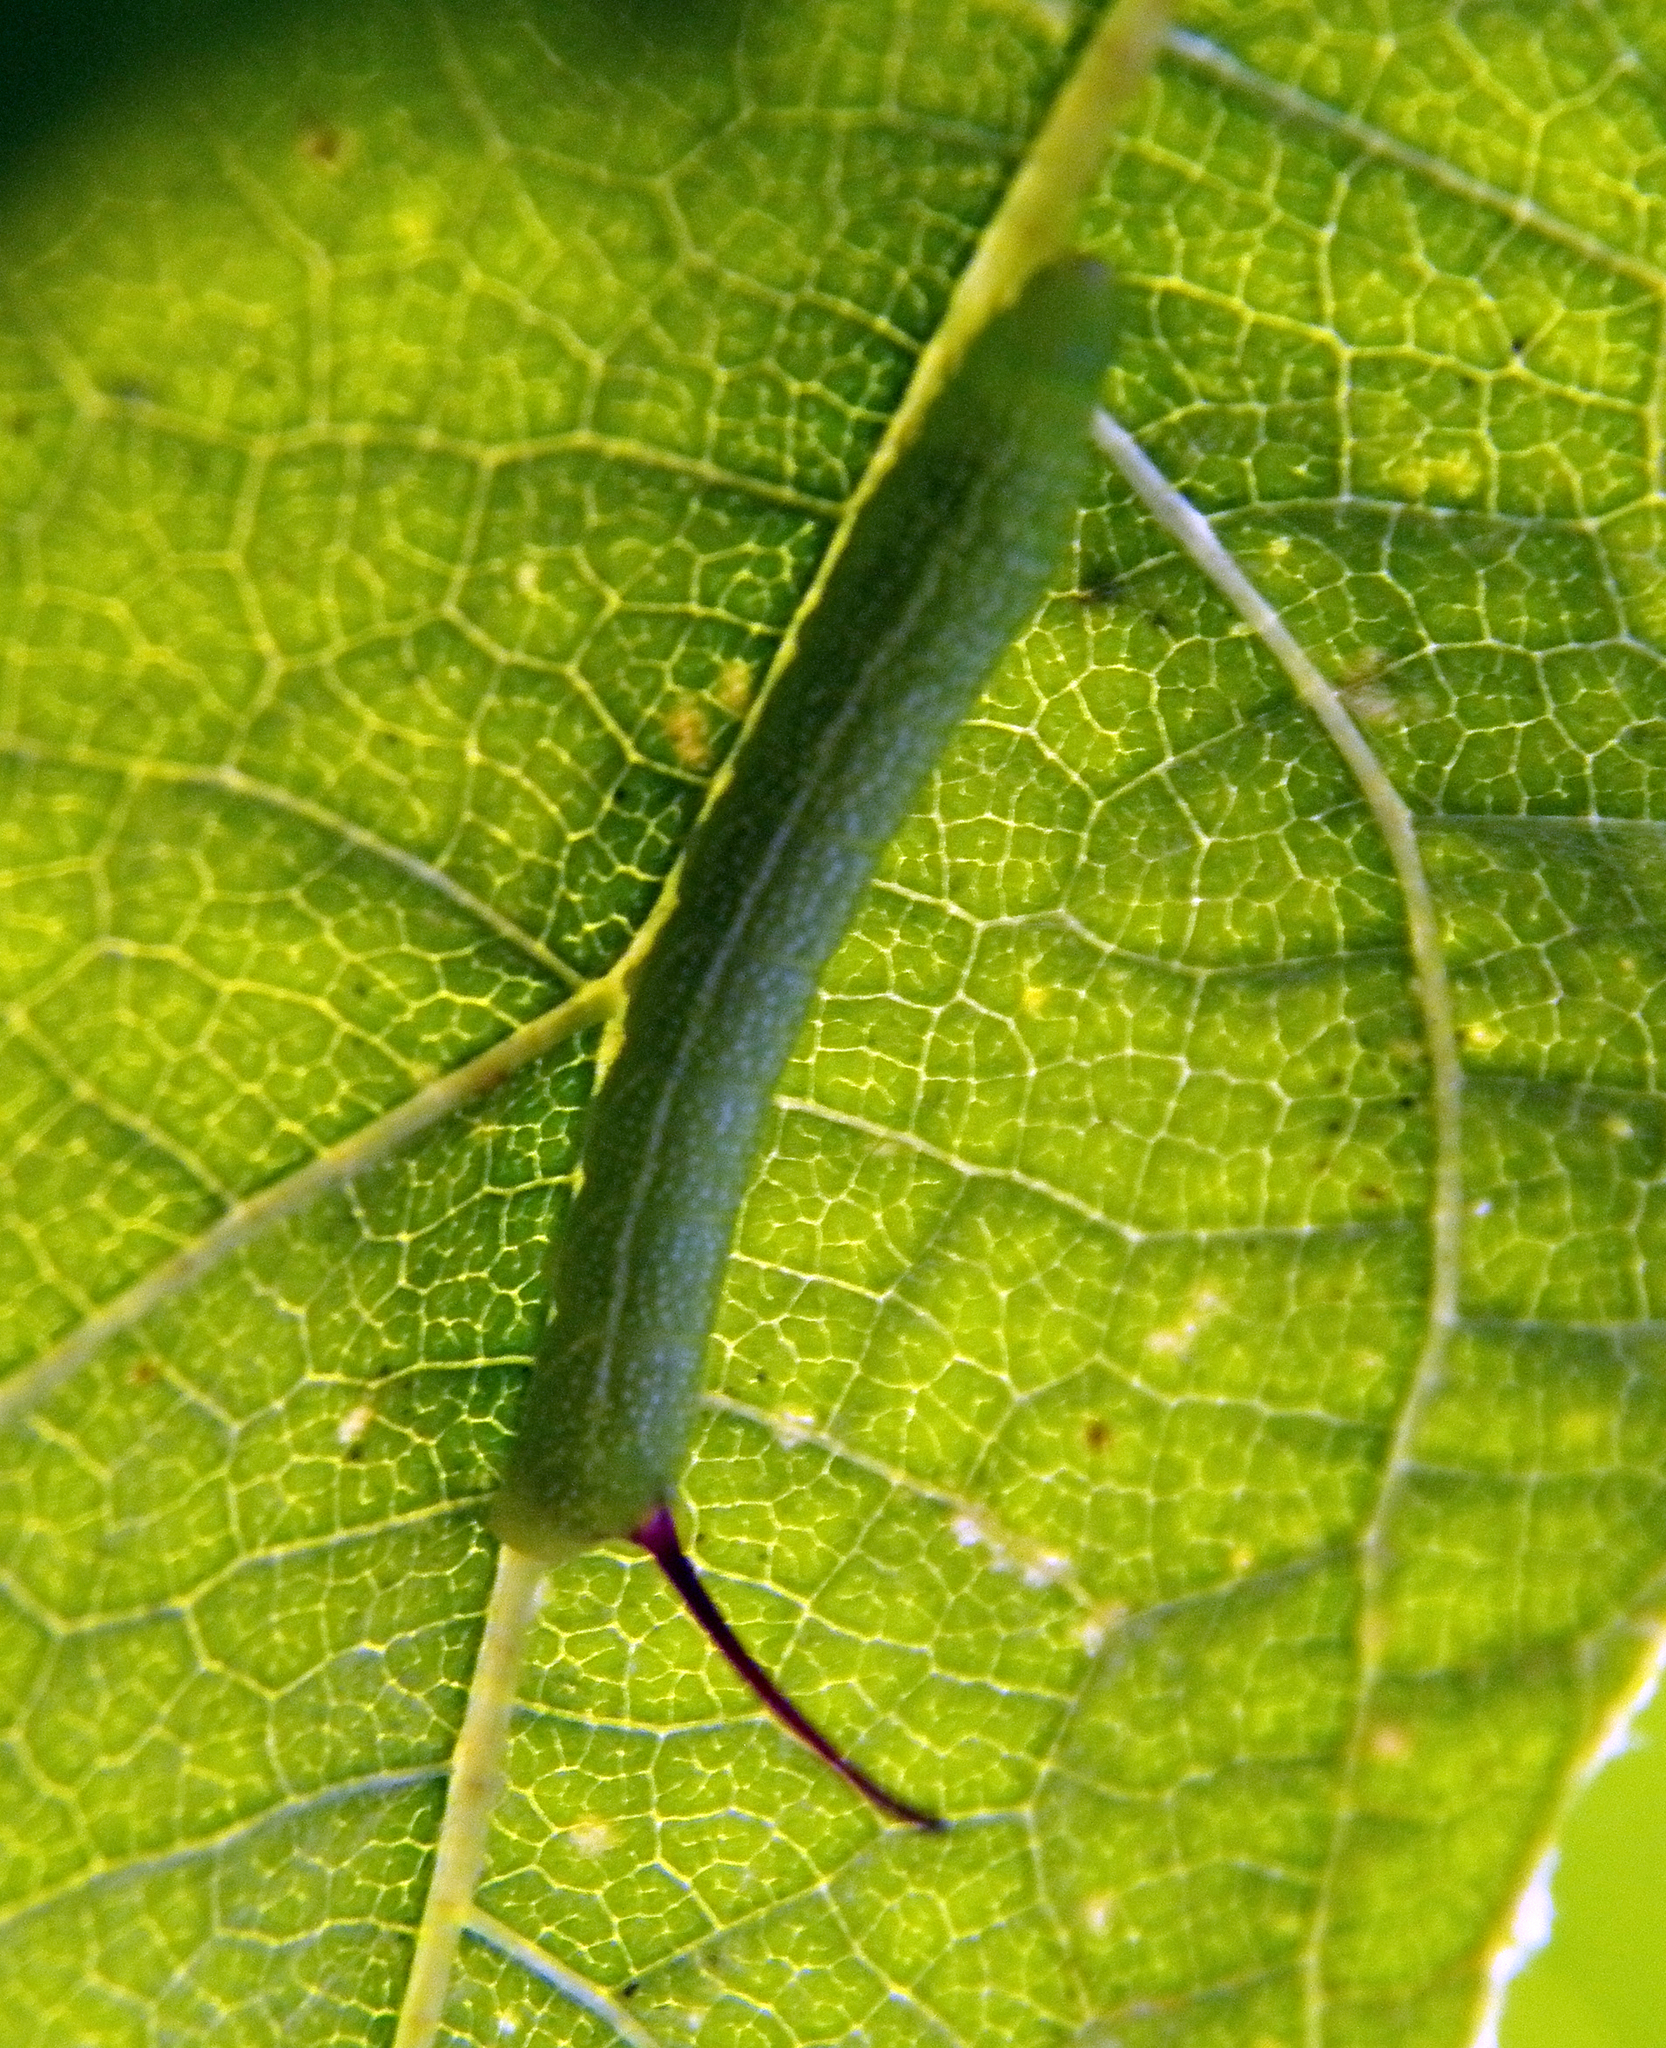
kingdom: Animalia
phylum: Arthropoda
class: Insecta
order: Lepidoptera
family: Sphingidae
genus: Eumorpha
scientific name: Eumorpha achemon
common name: Achemon sphinx
